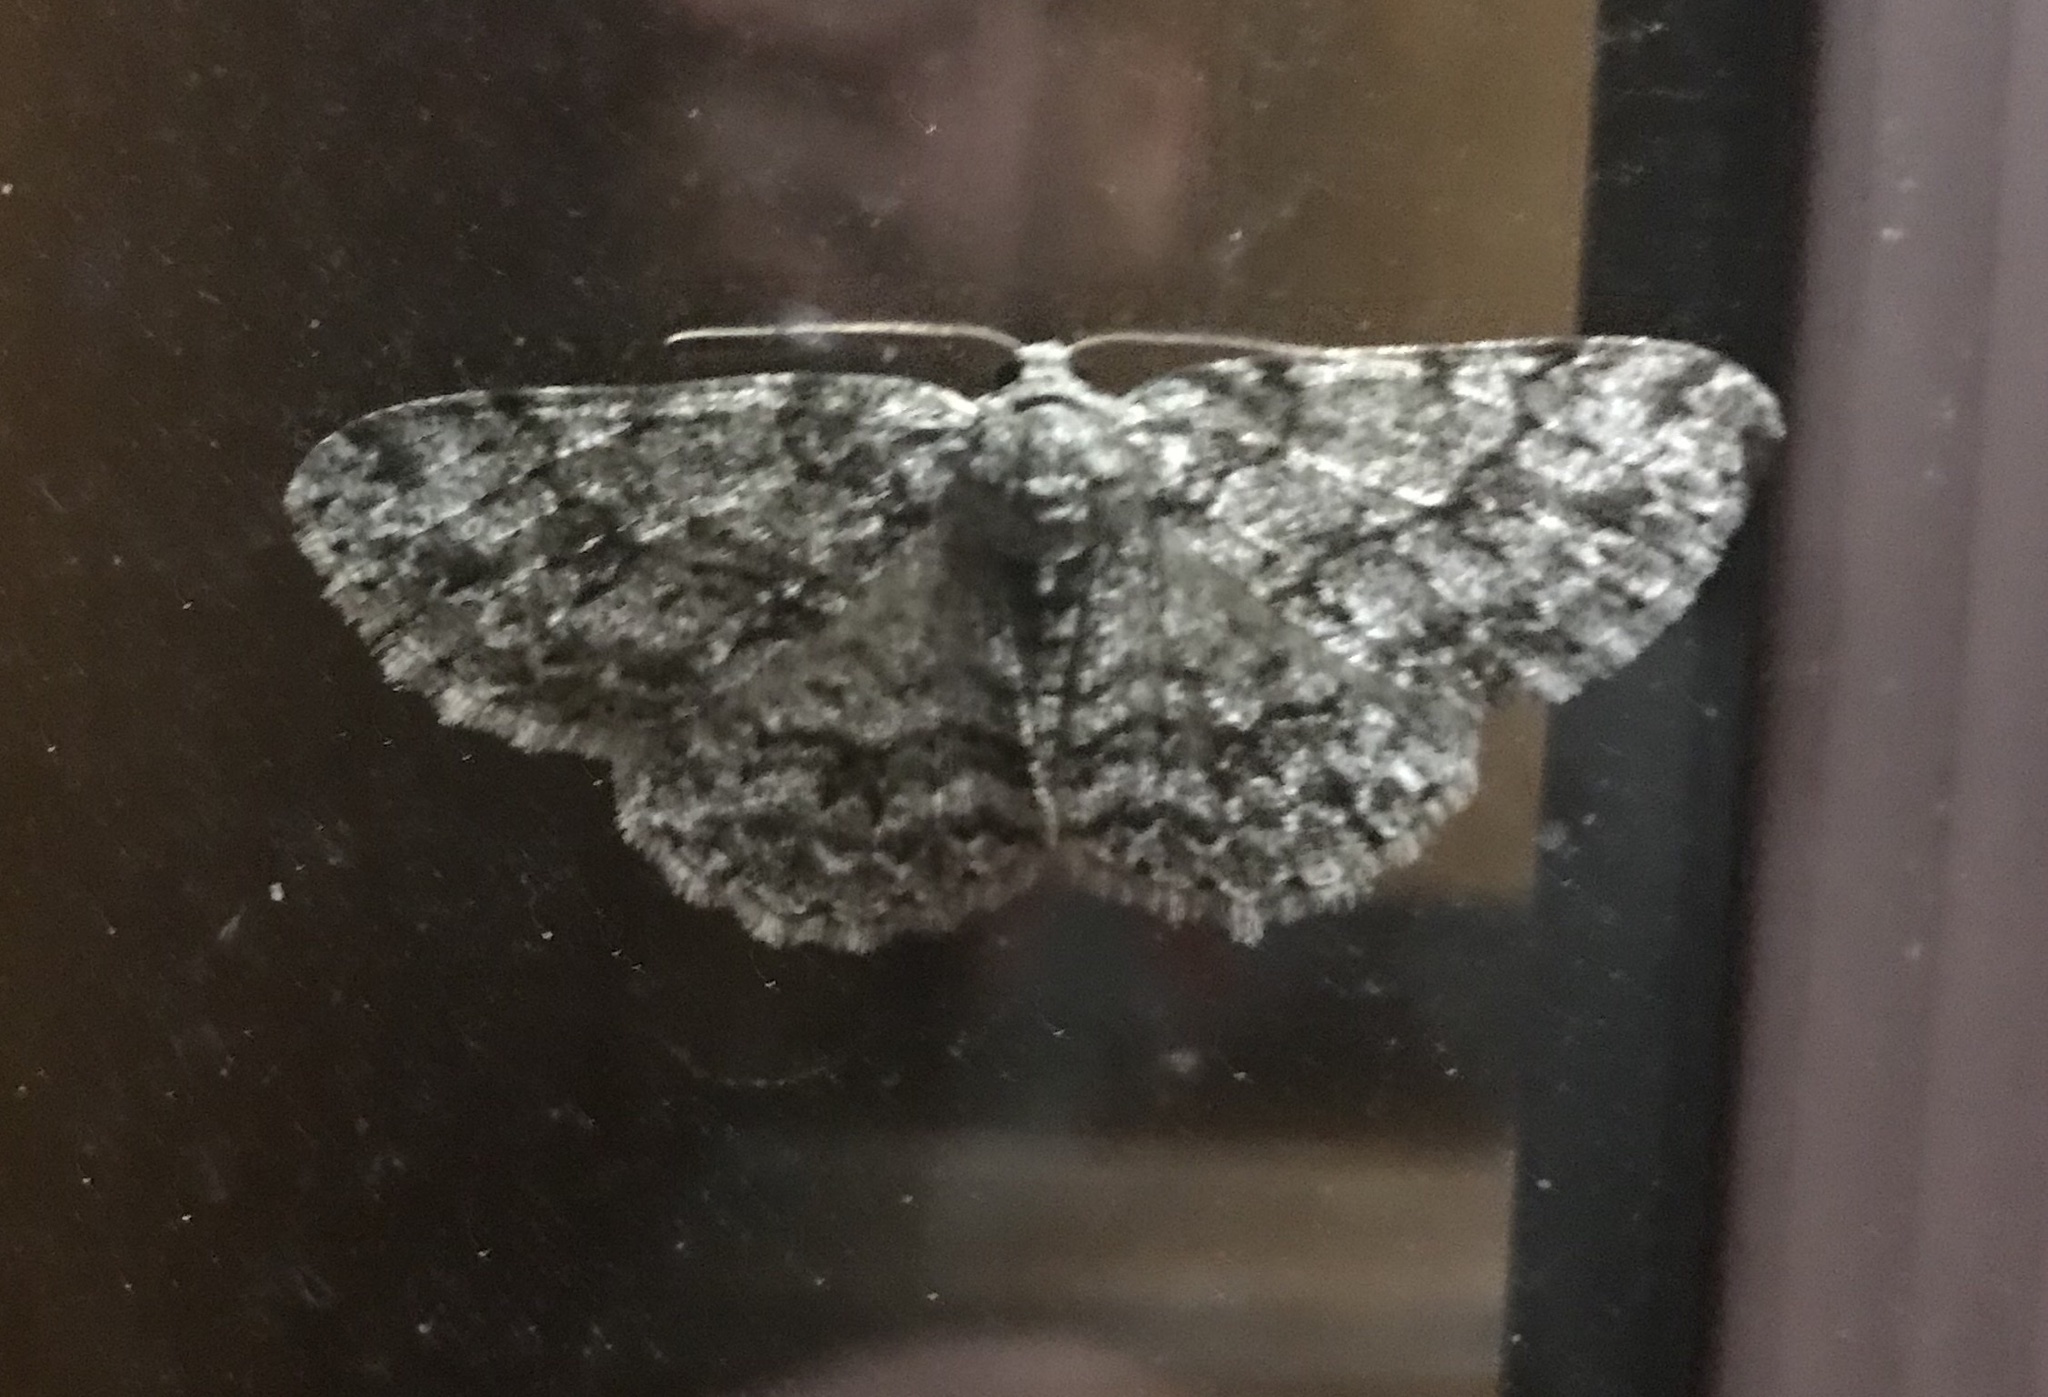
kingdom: Animalia
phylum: Arthropoda
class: Insecta
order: Lepidoptera
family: Geometridae
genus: Ectropis
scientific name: Ectropis crepuscularia
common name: Engrailed
